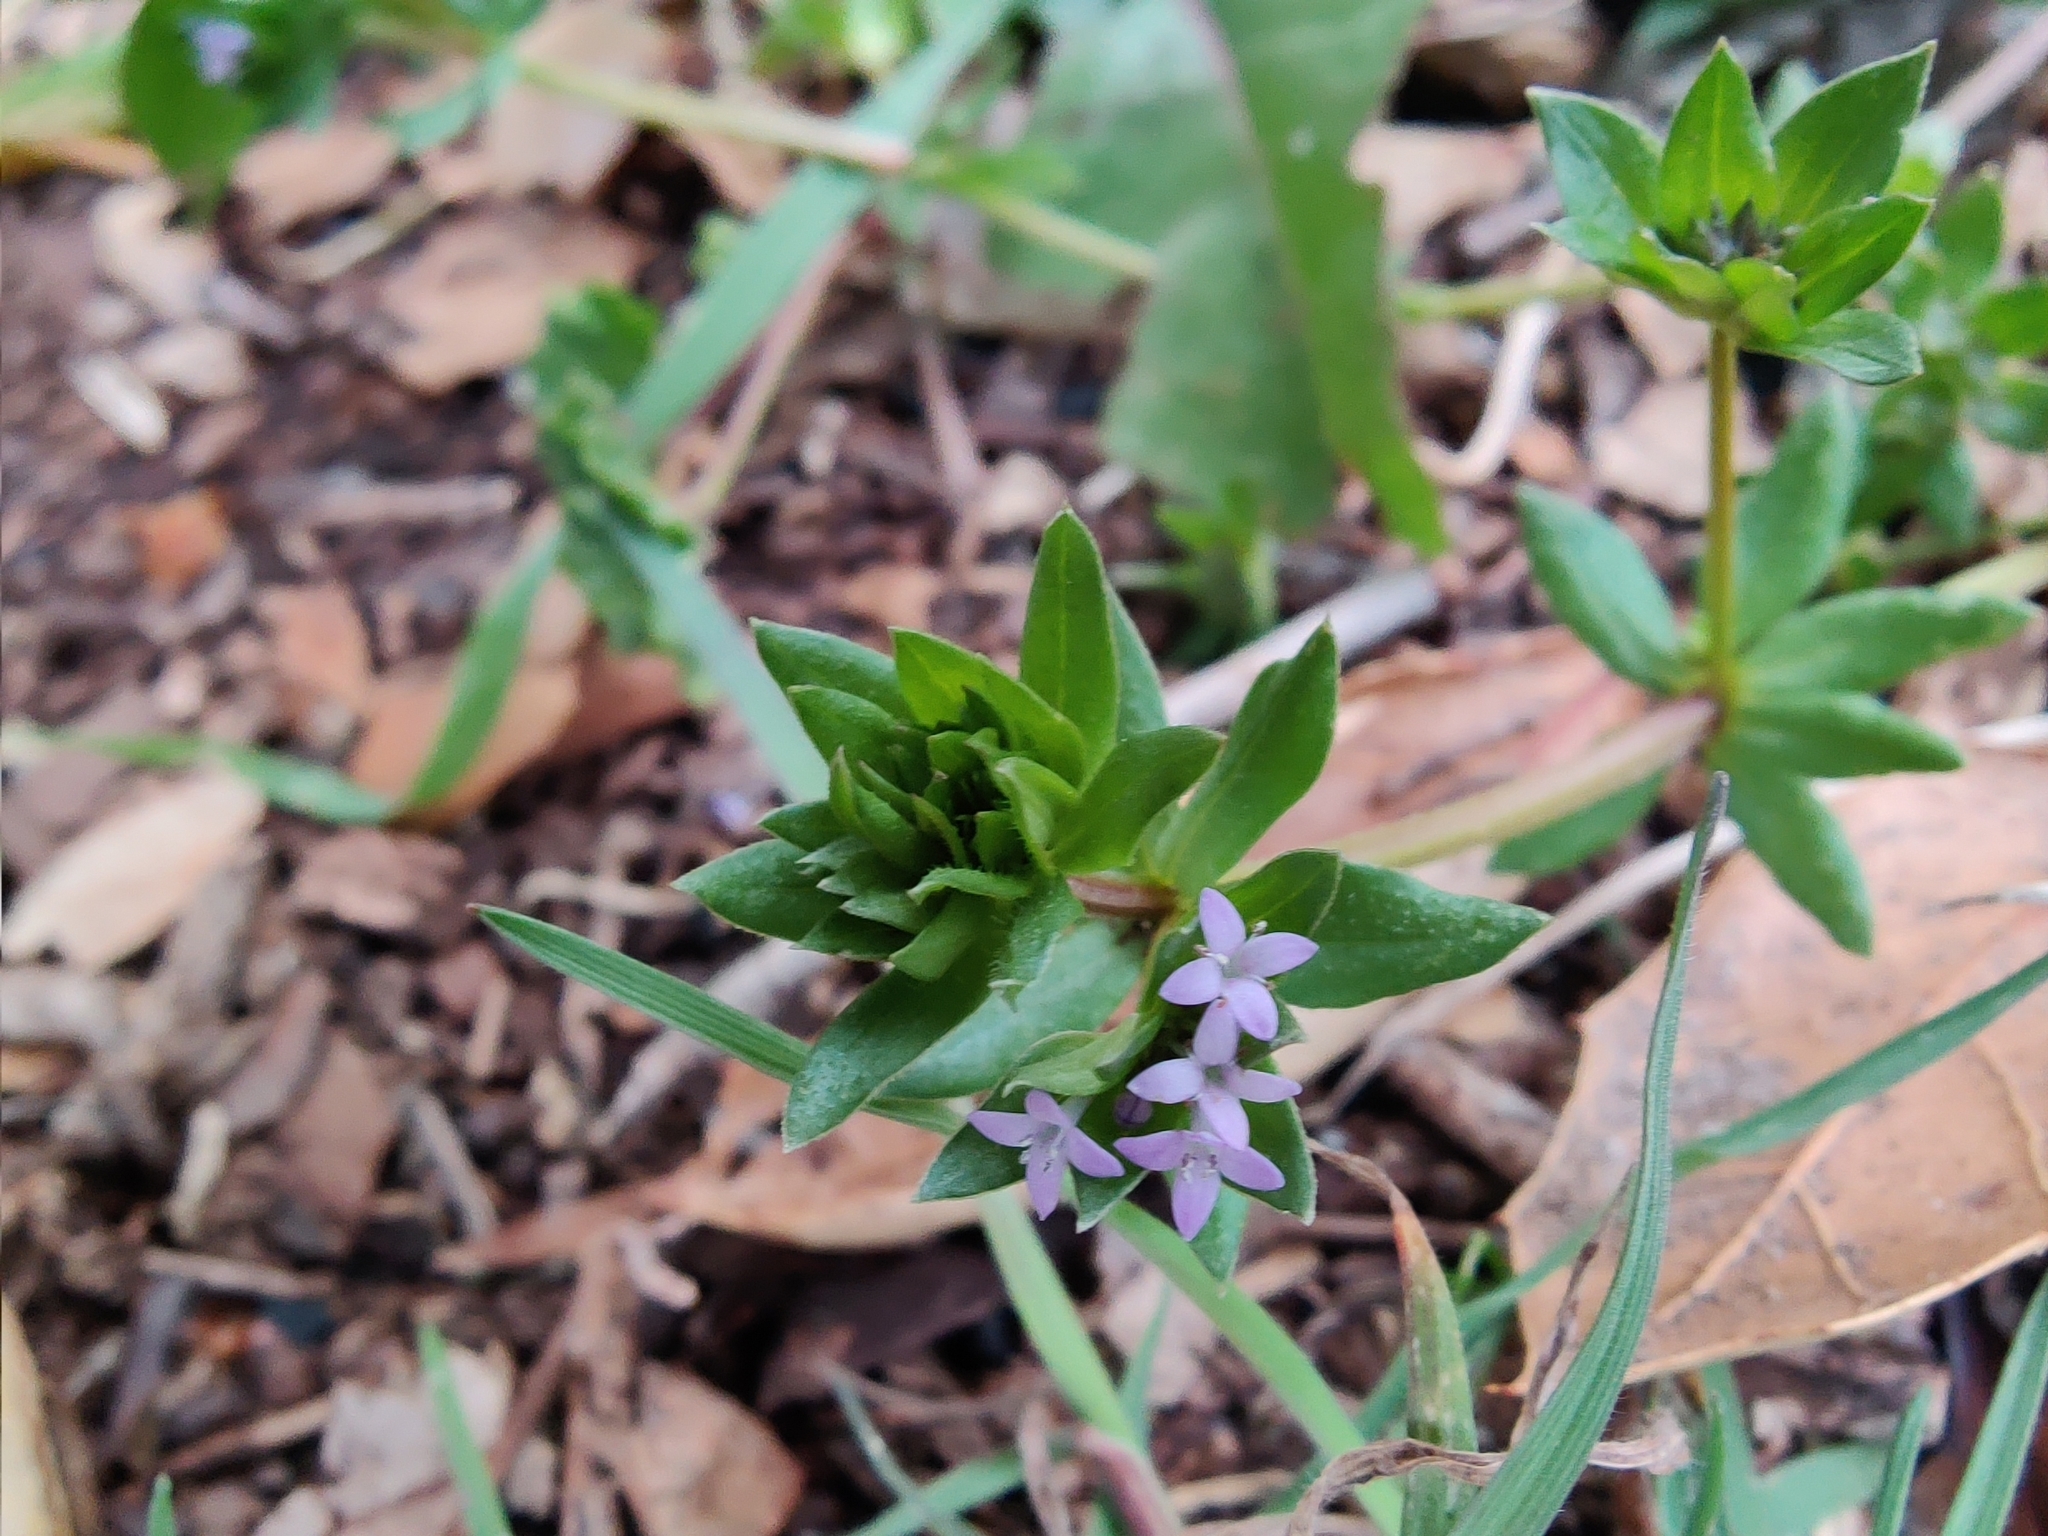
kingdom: Plantae
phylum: Tracheophyta
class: Magnoliopsida
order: Gentianales
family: Rubiaceae
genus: Sherardia
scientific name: Sherardia arvensis
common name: Field madder
